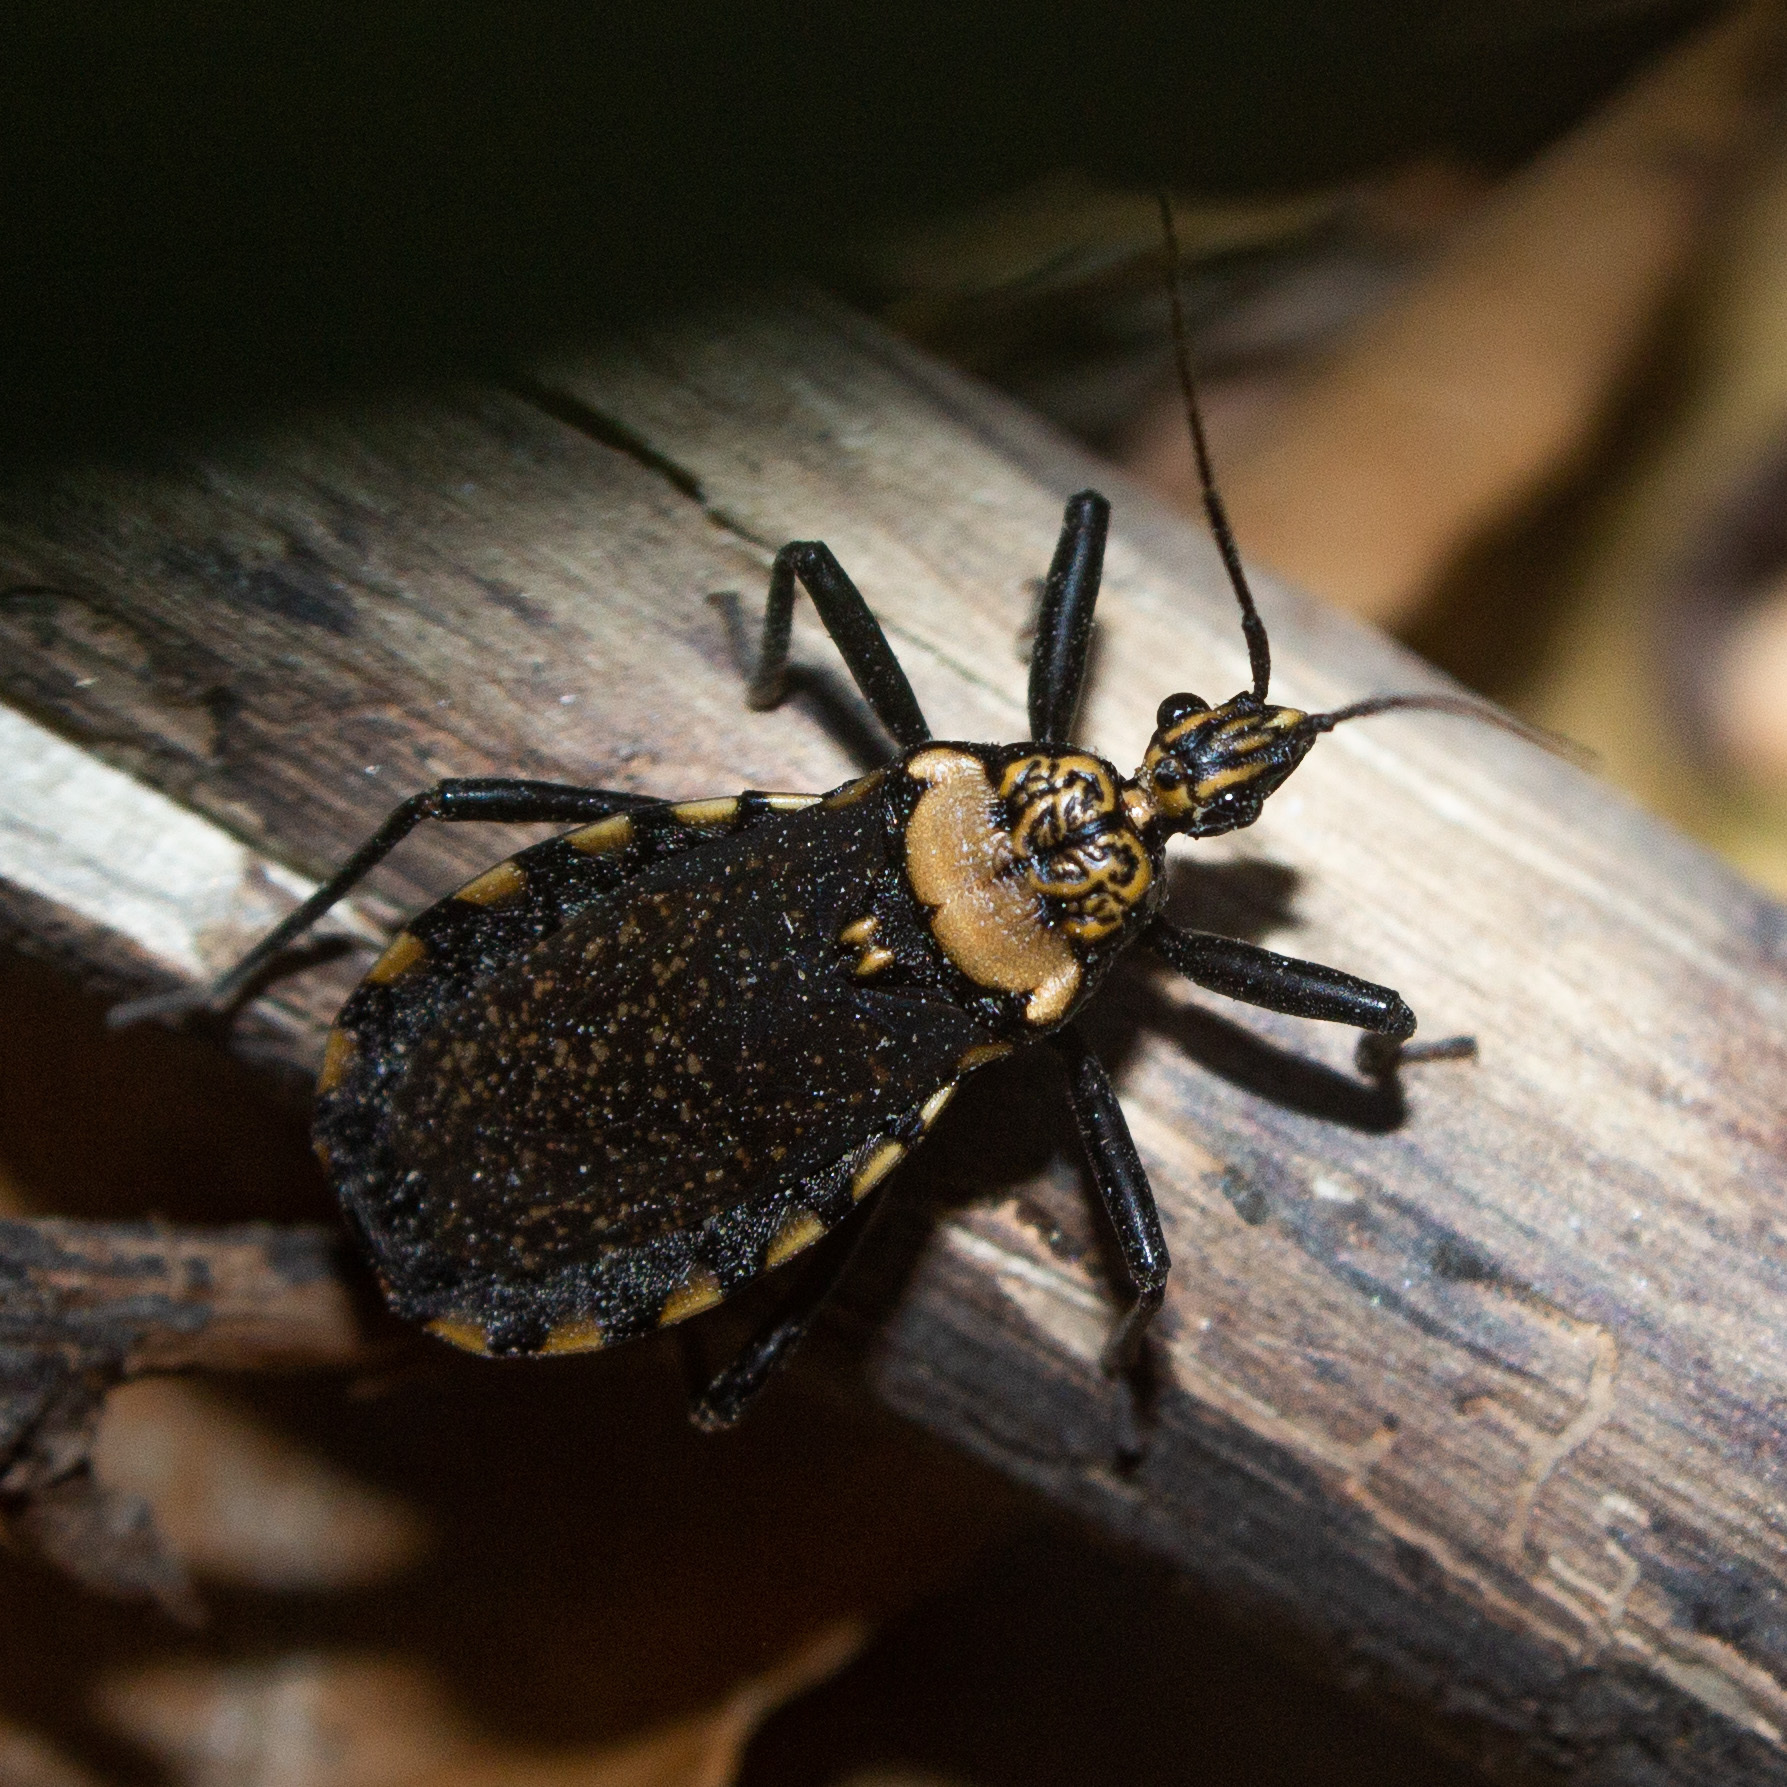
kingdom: Animalia
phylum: Arthropoda
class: Insecta
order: Hemiptera
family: Reduviidae
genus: Rhiginia
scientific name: Rhiginia conspersa
